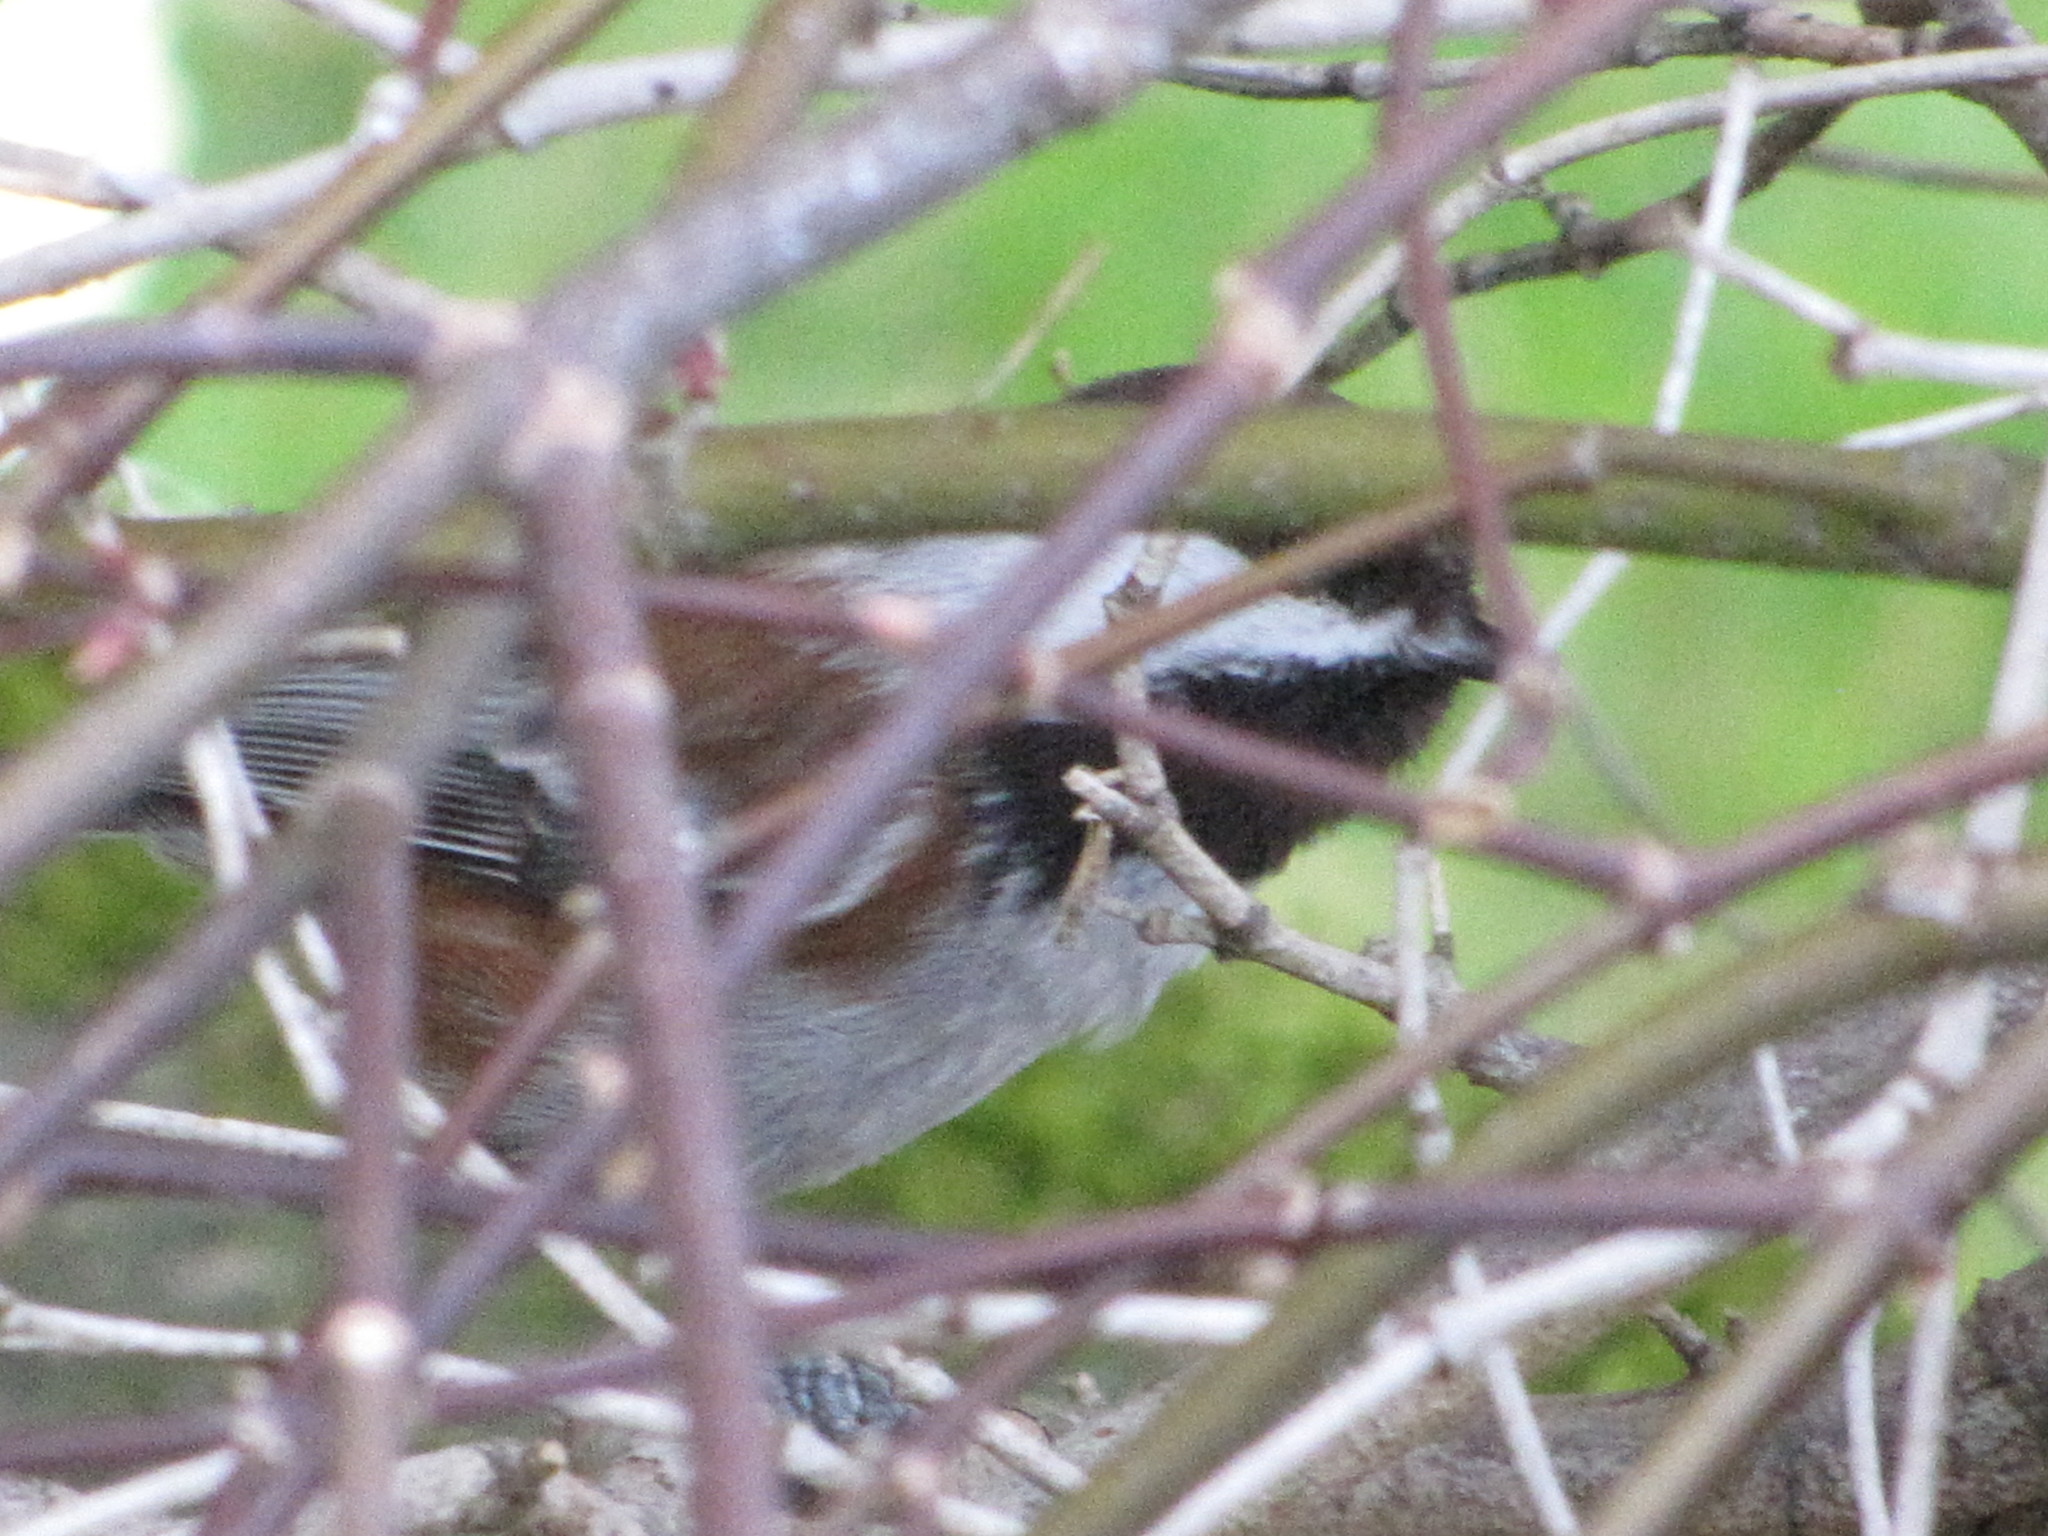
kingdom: Animalia
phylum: Chordata
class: Aves
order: Passeriformes
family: Paridae
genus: Poecile
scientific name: Poecile rufescens
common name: Chestnut-backed chickadee
